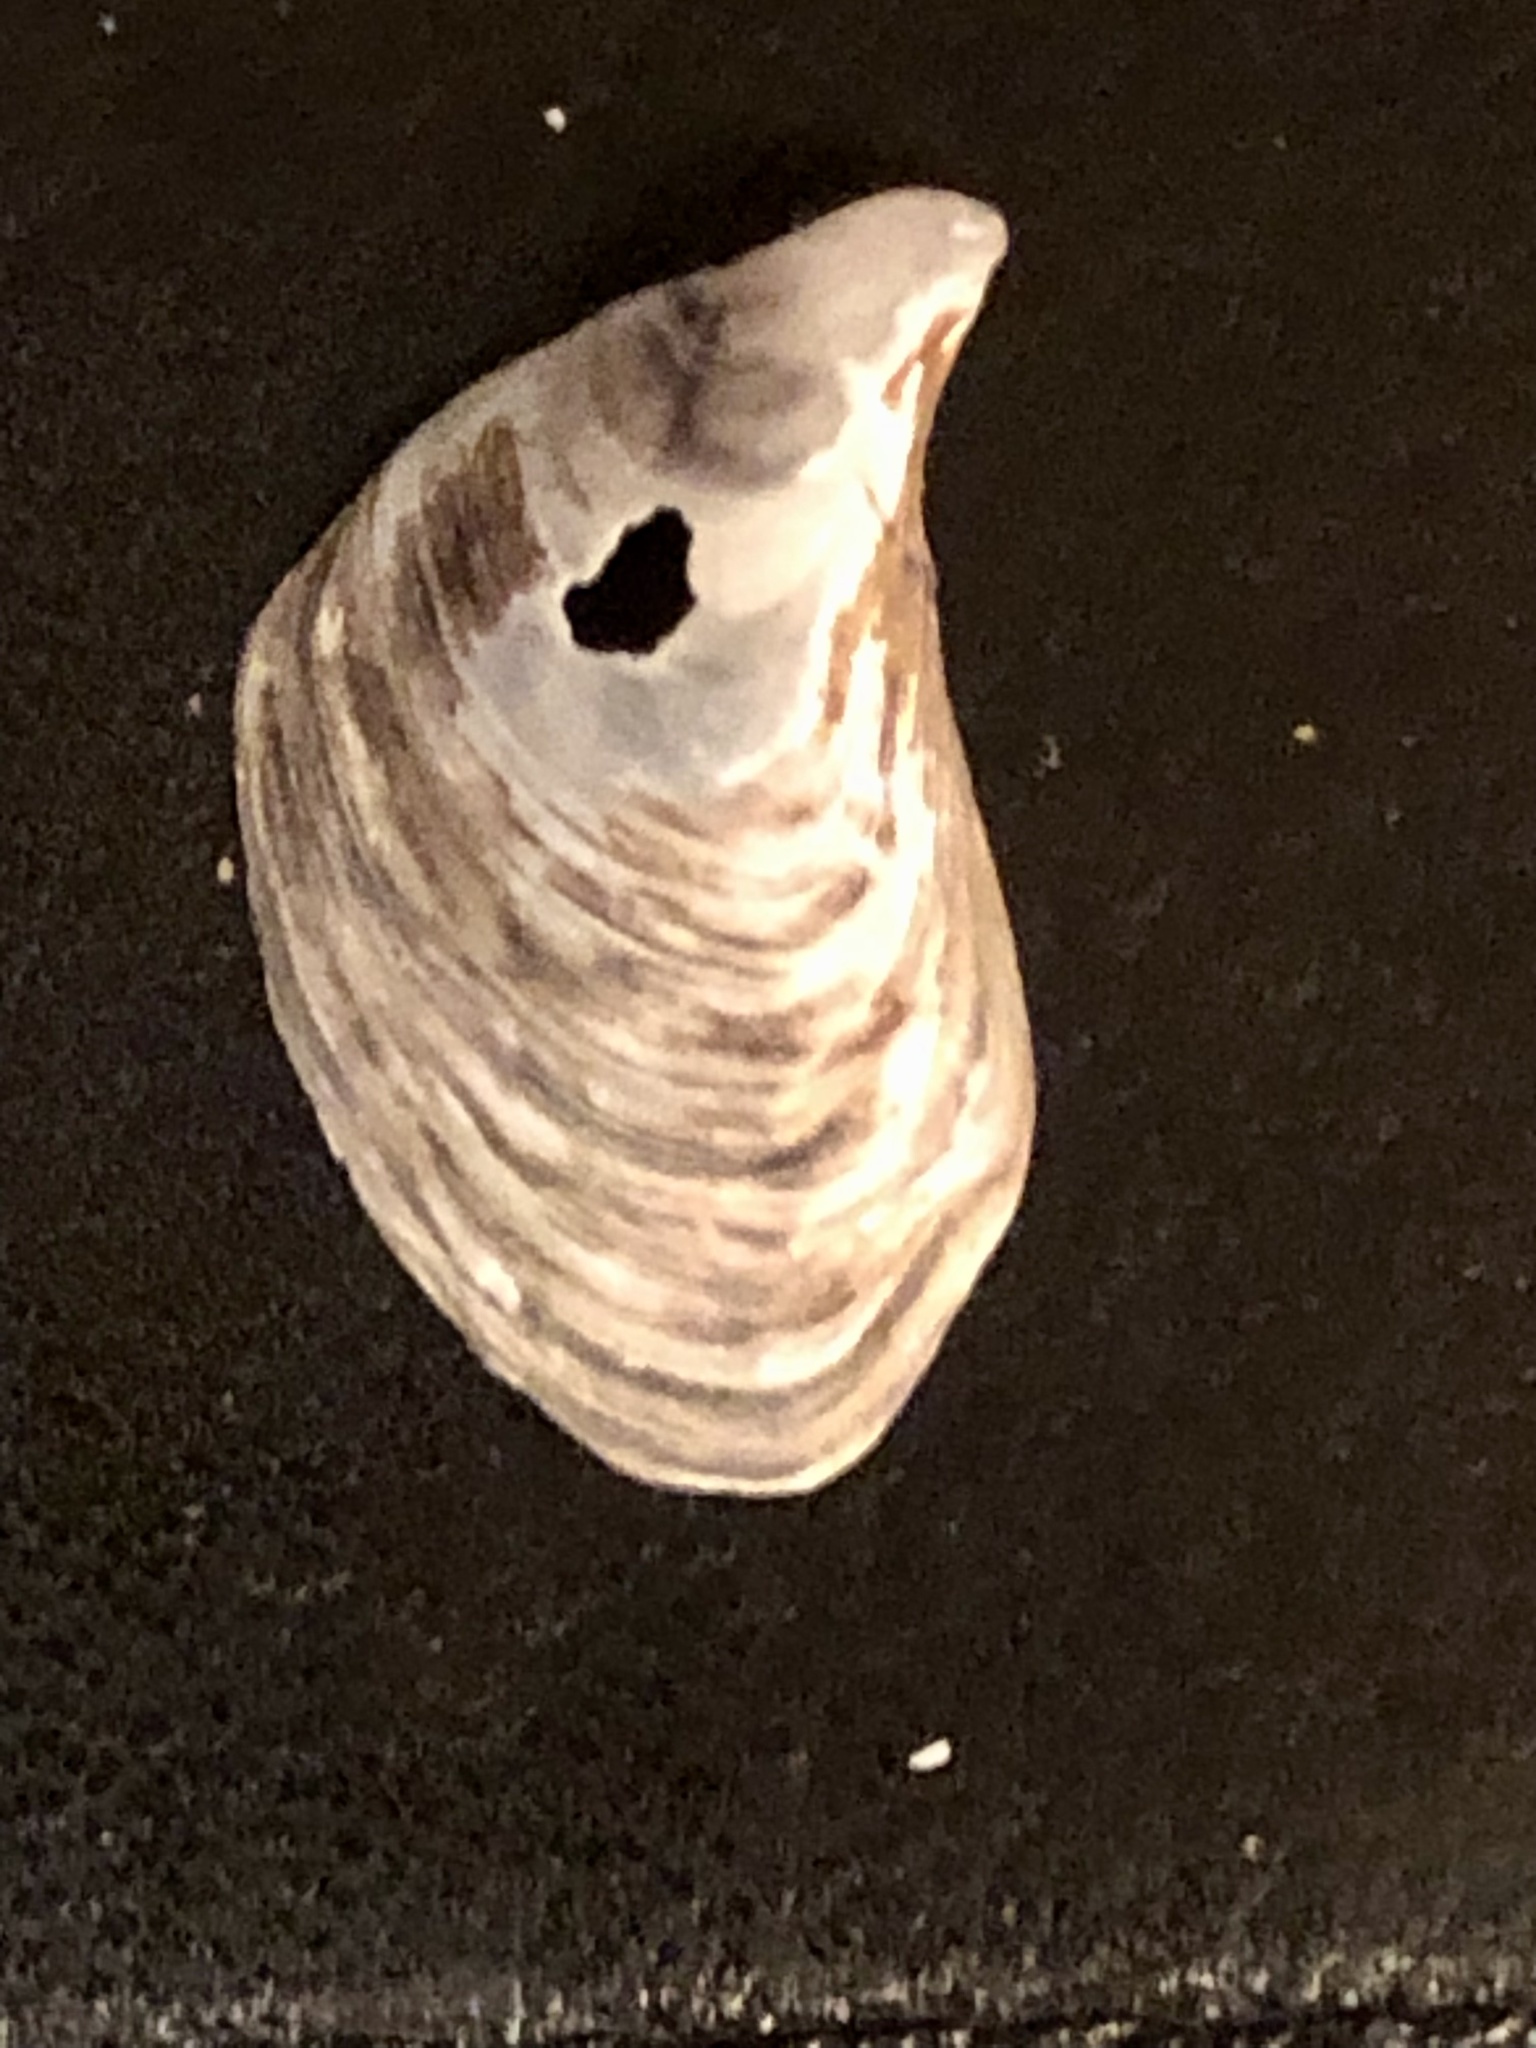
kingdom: Animalia
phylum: Mollusca
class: Bivalvia
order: Myida
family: Dreissenidae
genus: Dreissena
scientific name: Dreissena bugensis
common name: Quagga mussel
